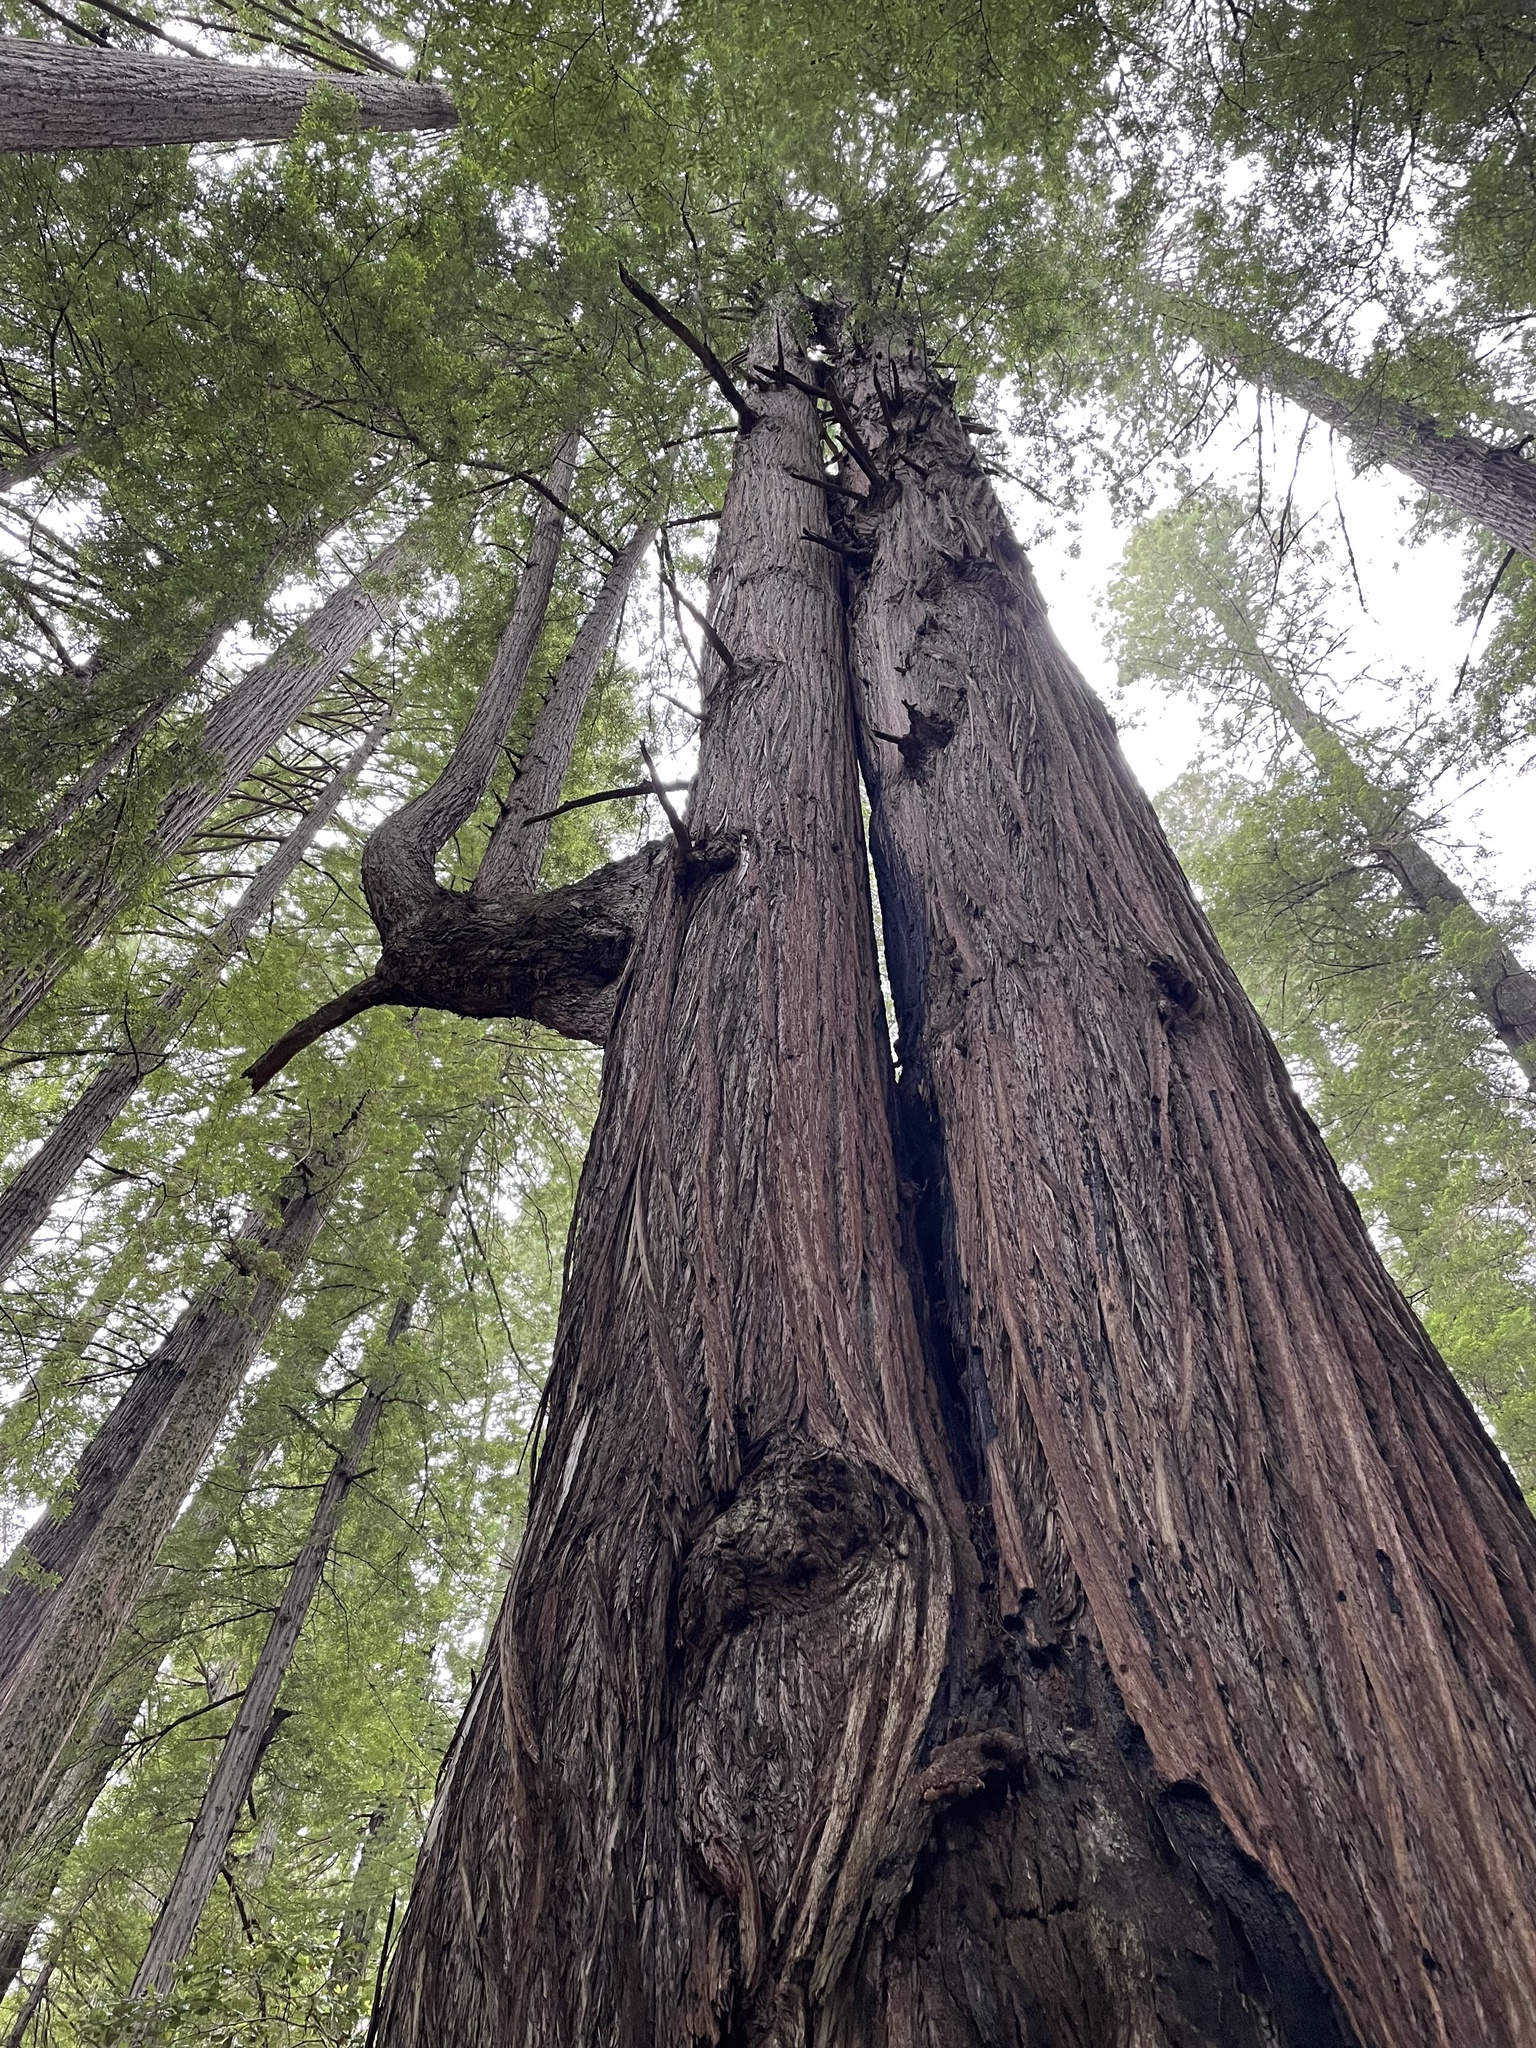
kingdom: Plantae
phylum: Tracheophyta
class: Pinopsida
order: Pinales
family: Cupressaceae
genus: Sequoia
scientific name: Sequoia sempervirens
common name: Coast redwood
